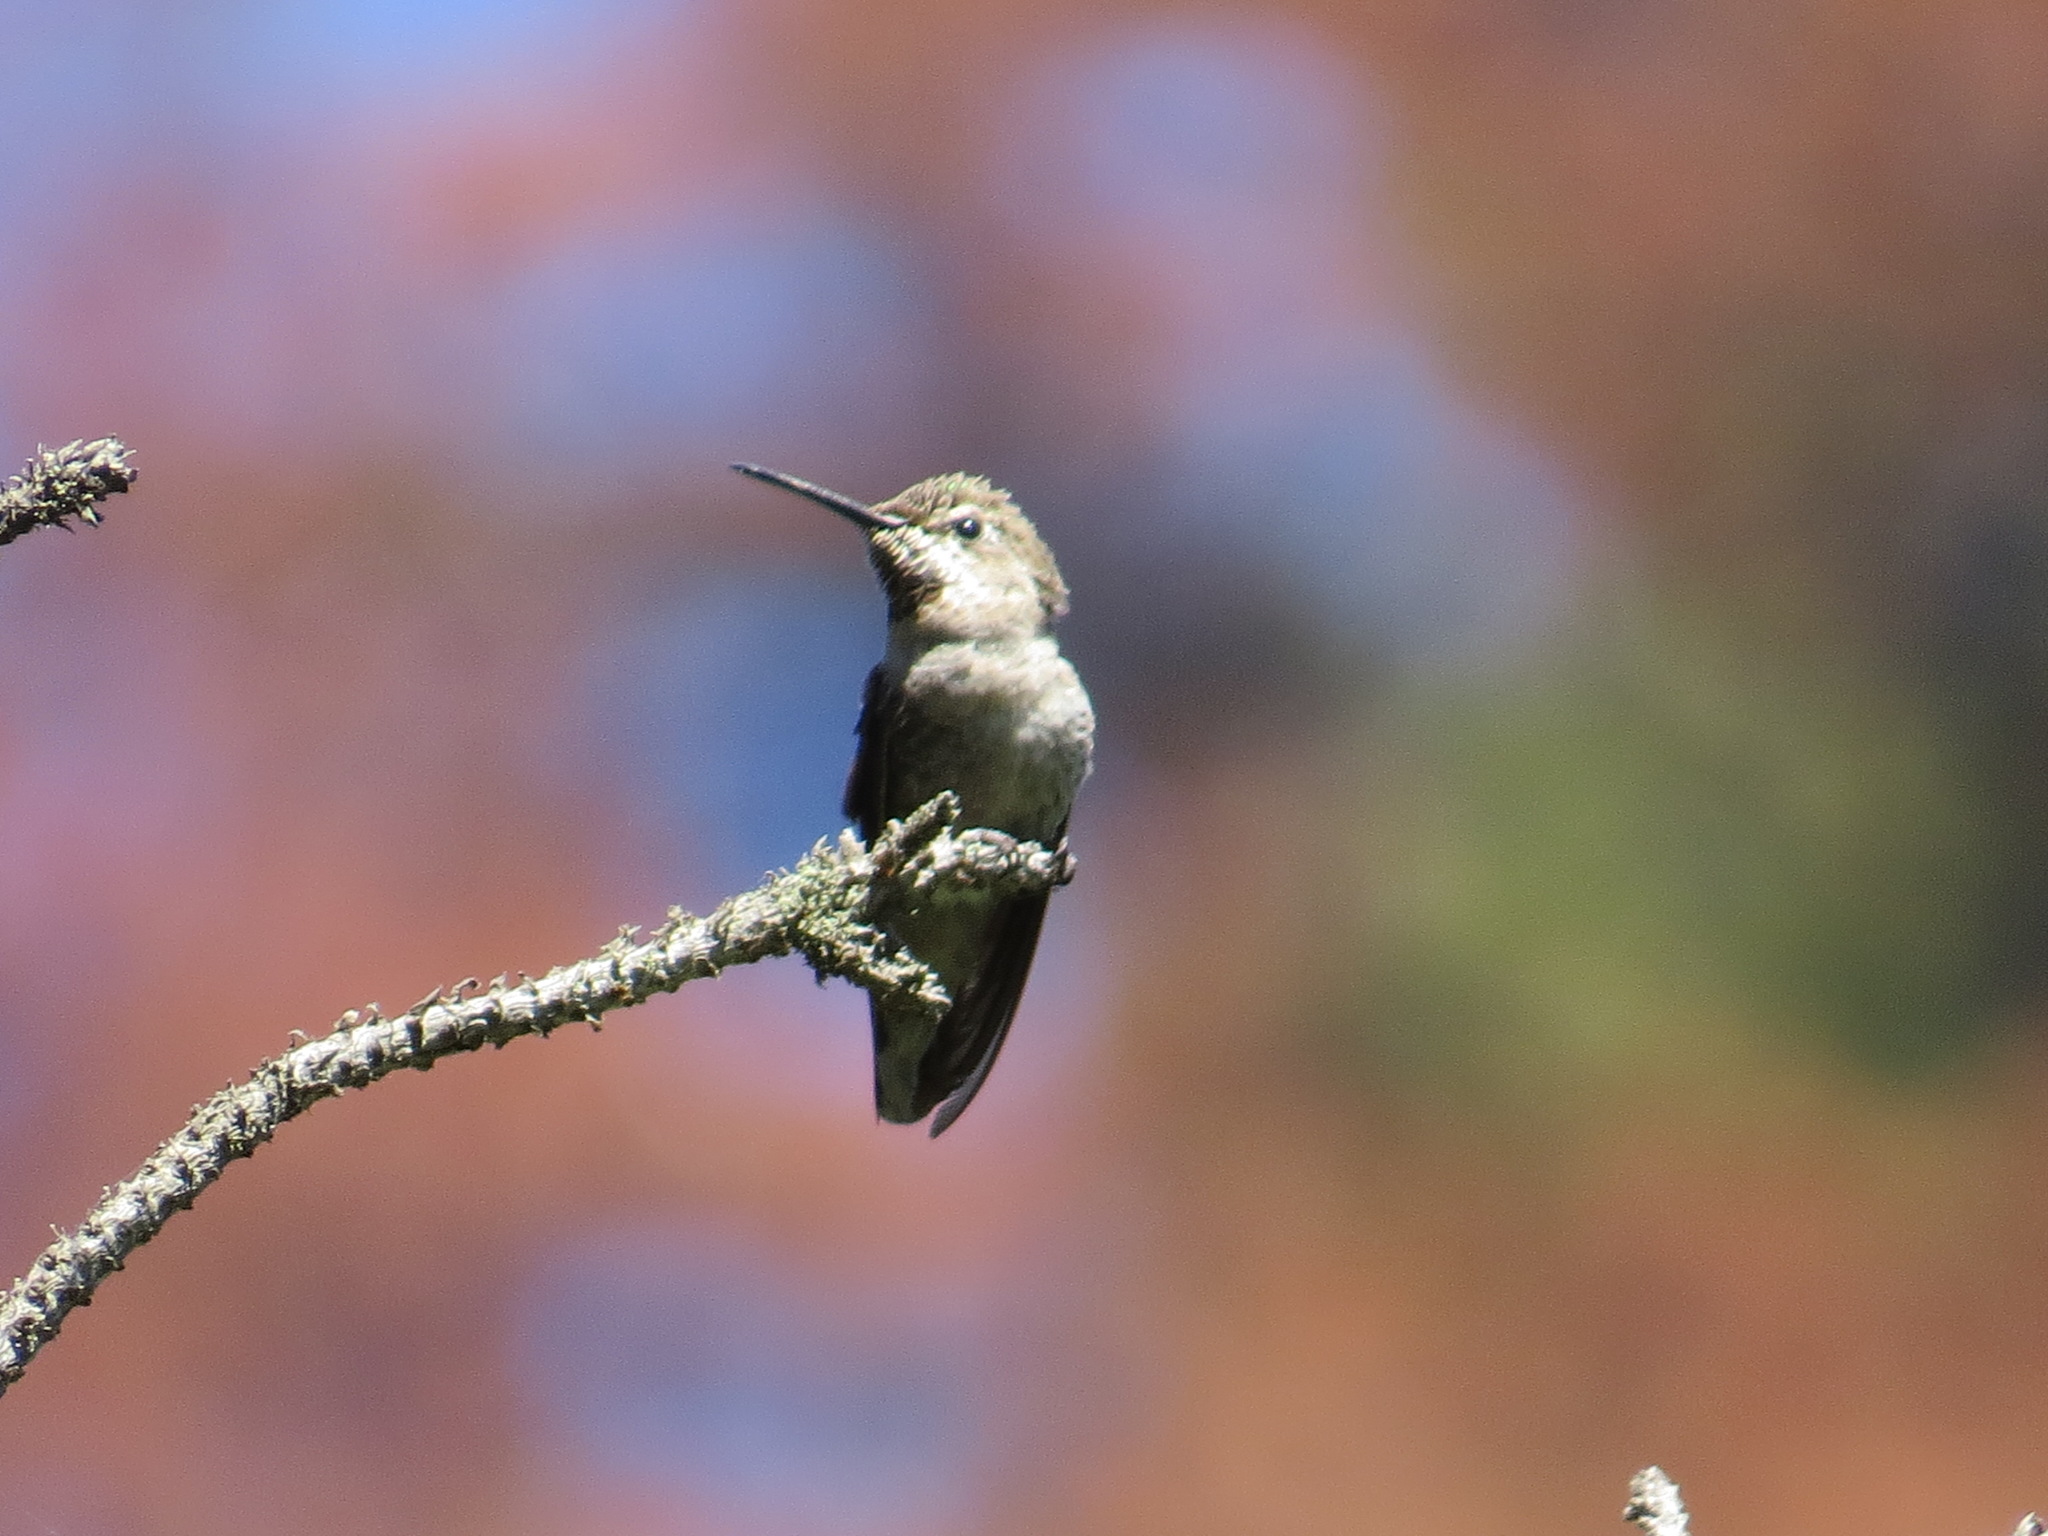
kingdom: Animalia
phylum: Chordata
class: Aves
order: Apodiformes
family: Trochilidae
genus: Calypte
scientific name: Calypte anna
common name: Anna's hummingbird
